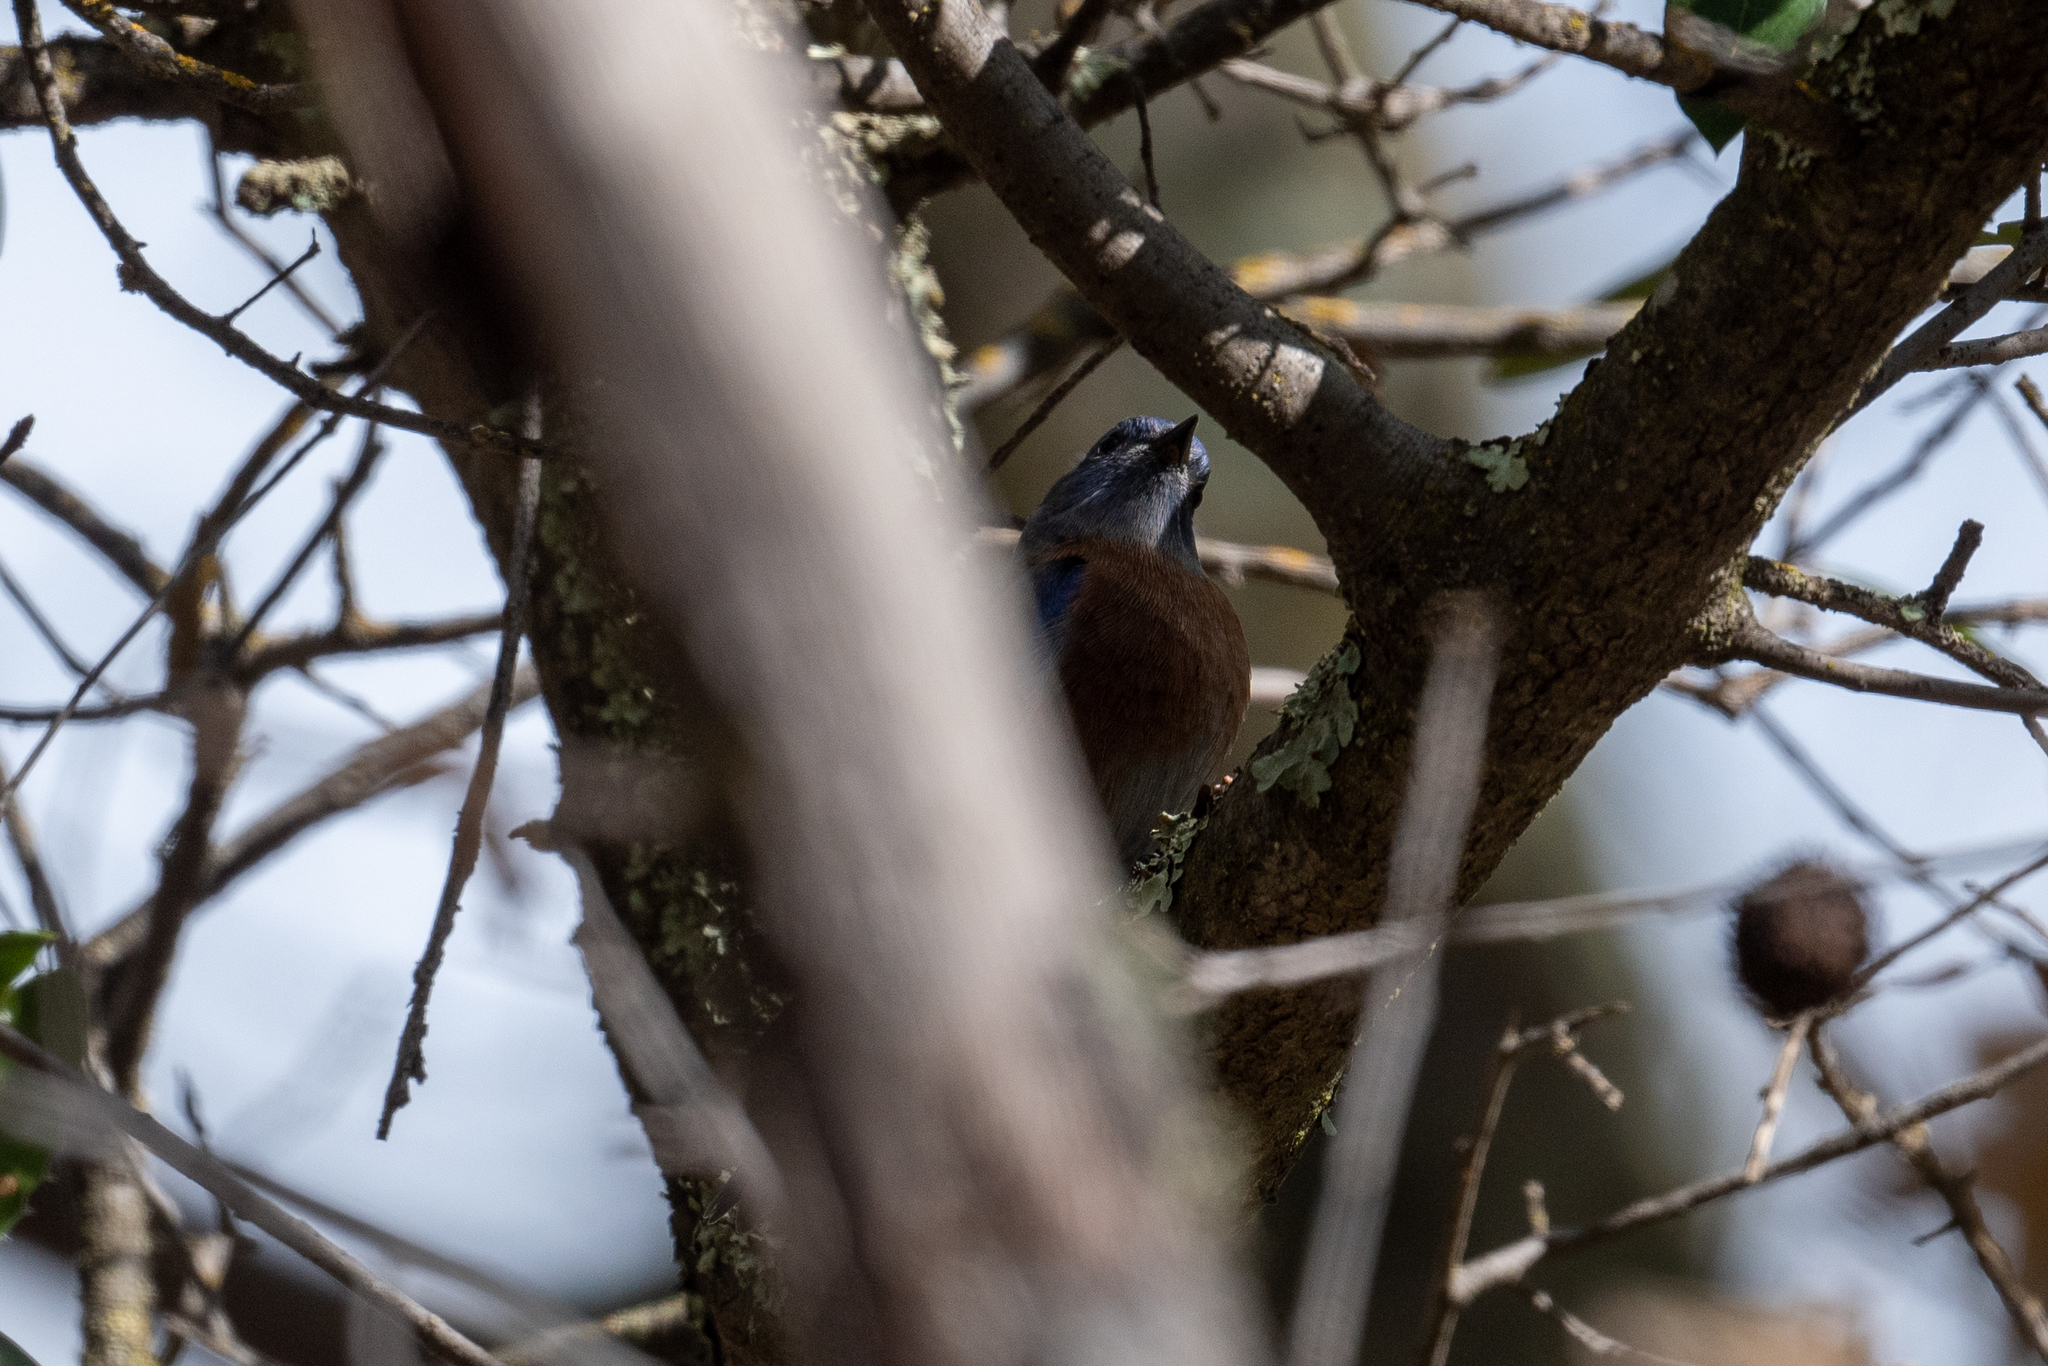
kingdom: Animalia
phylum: Chordata
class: Aves
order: Passeriformes
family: Turdidae
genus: Sialia
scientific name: Sialia mexicana
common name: Western bluebird
